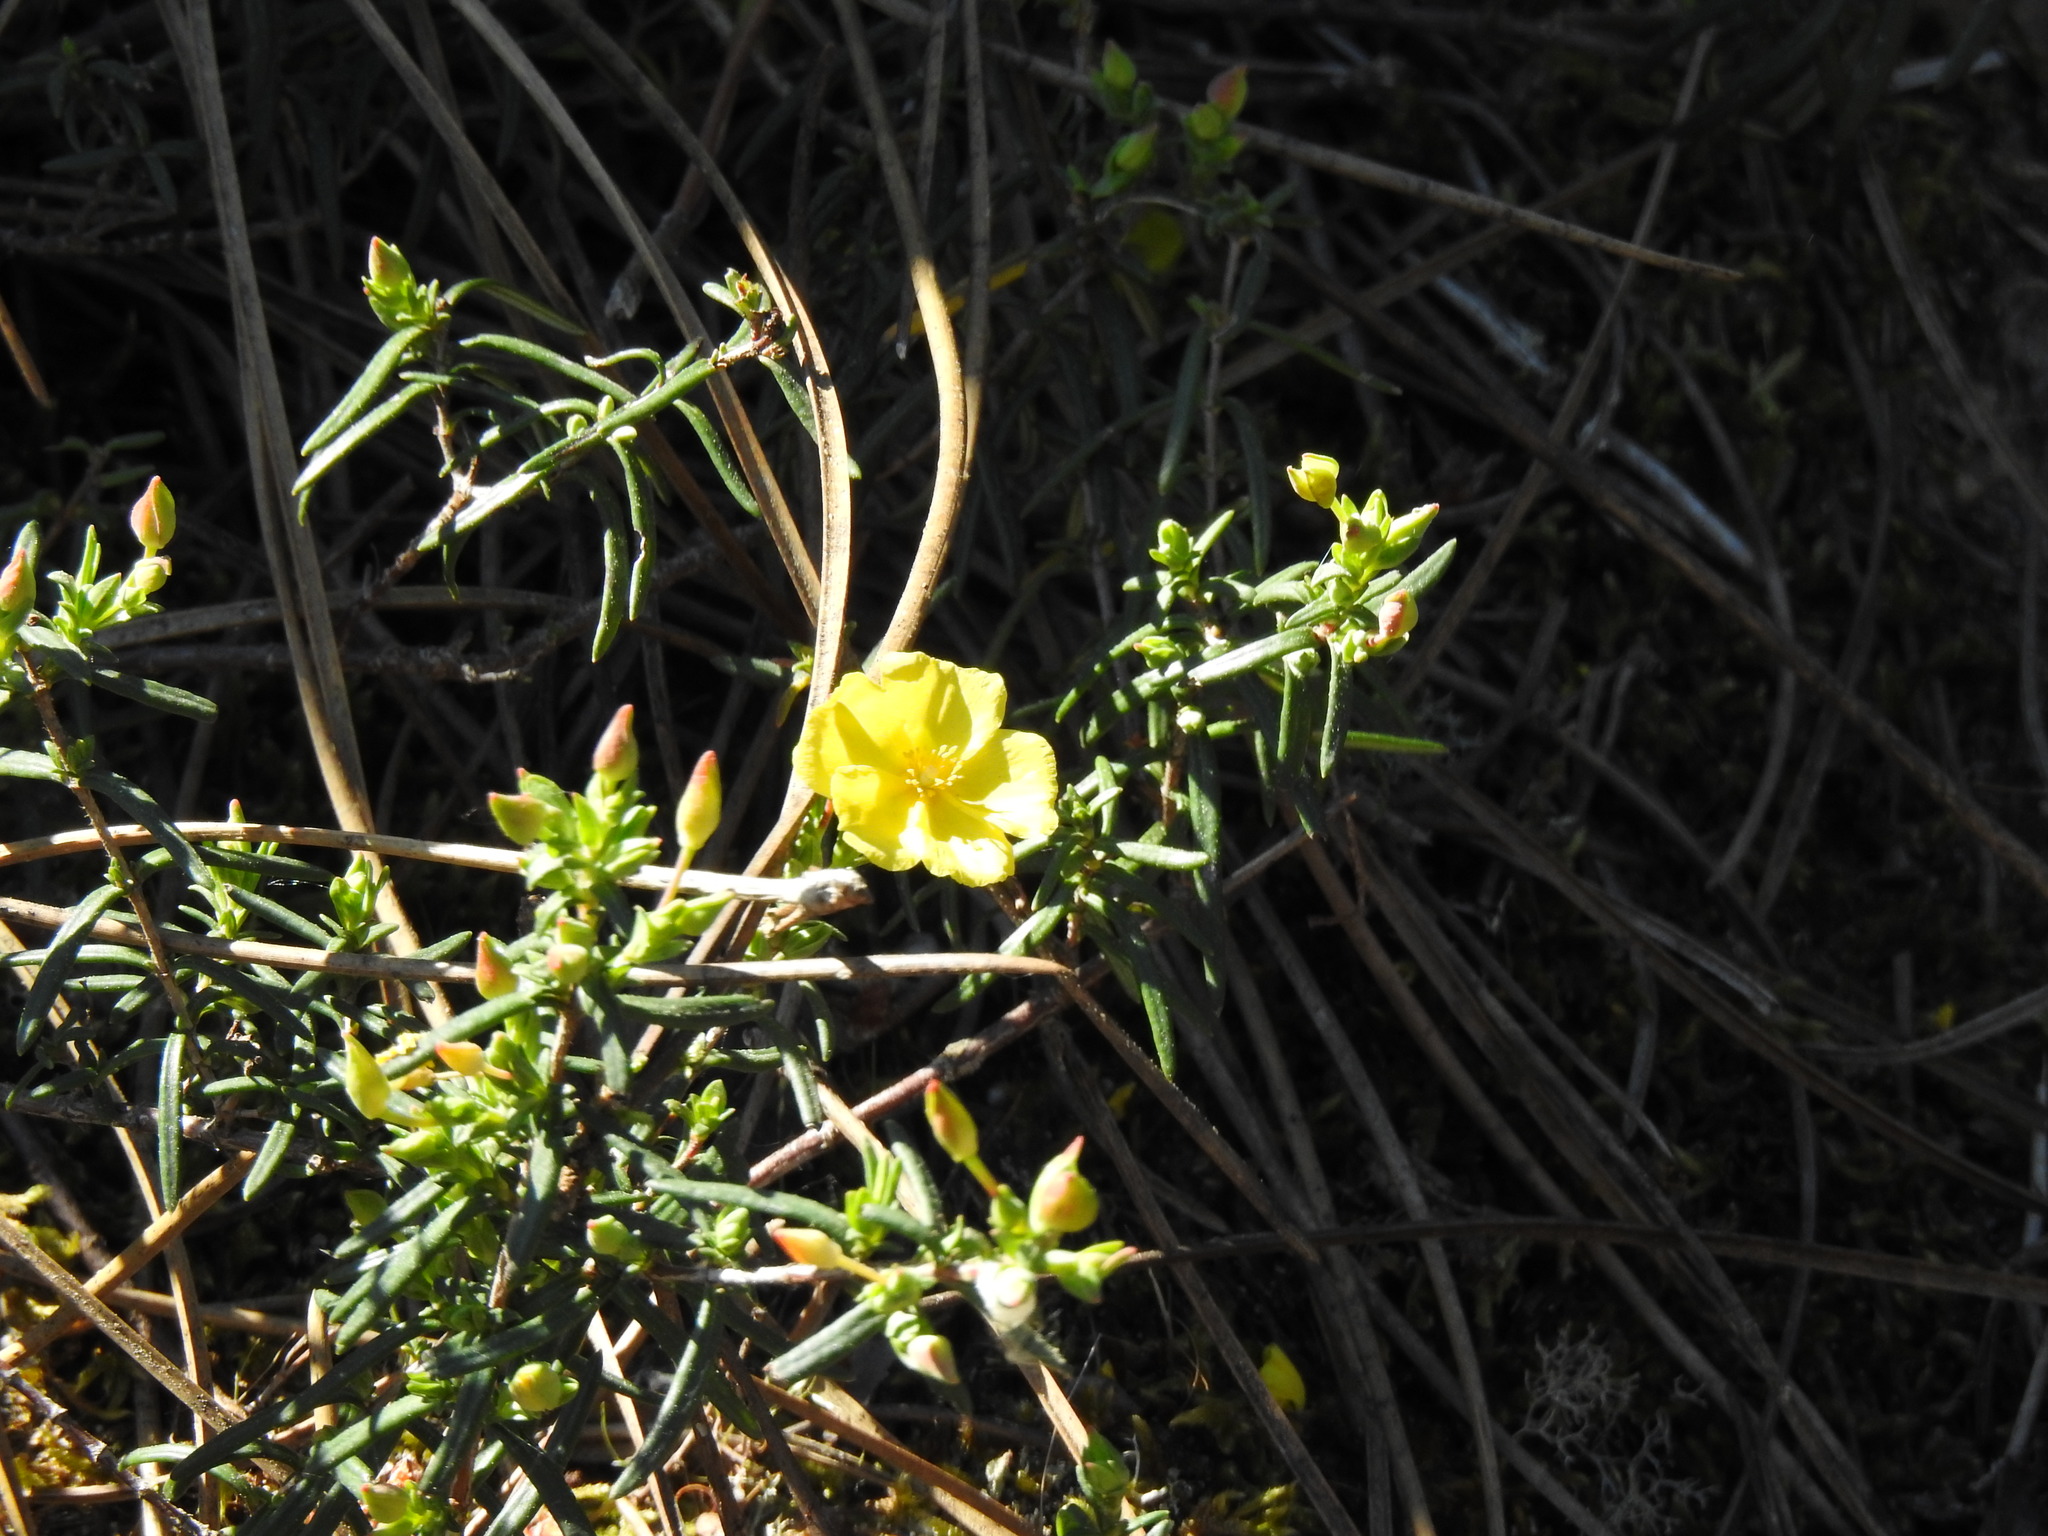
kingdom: Plantae
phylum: Tracheophyta
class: Magnoliopsida
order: Malvales
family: Cistaceae
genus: Halimium
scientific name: Halimium calycinum
